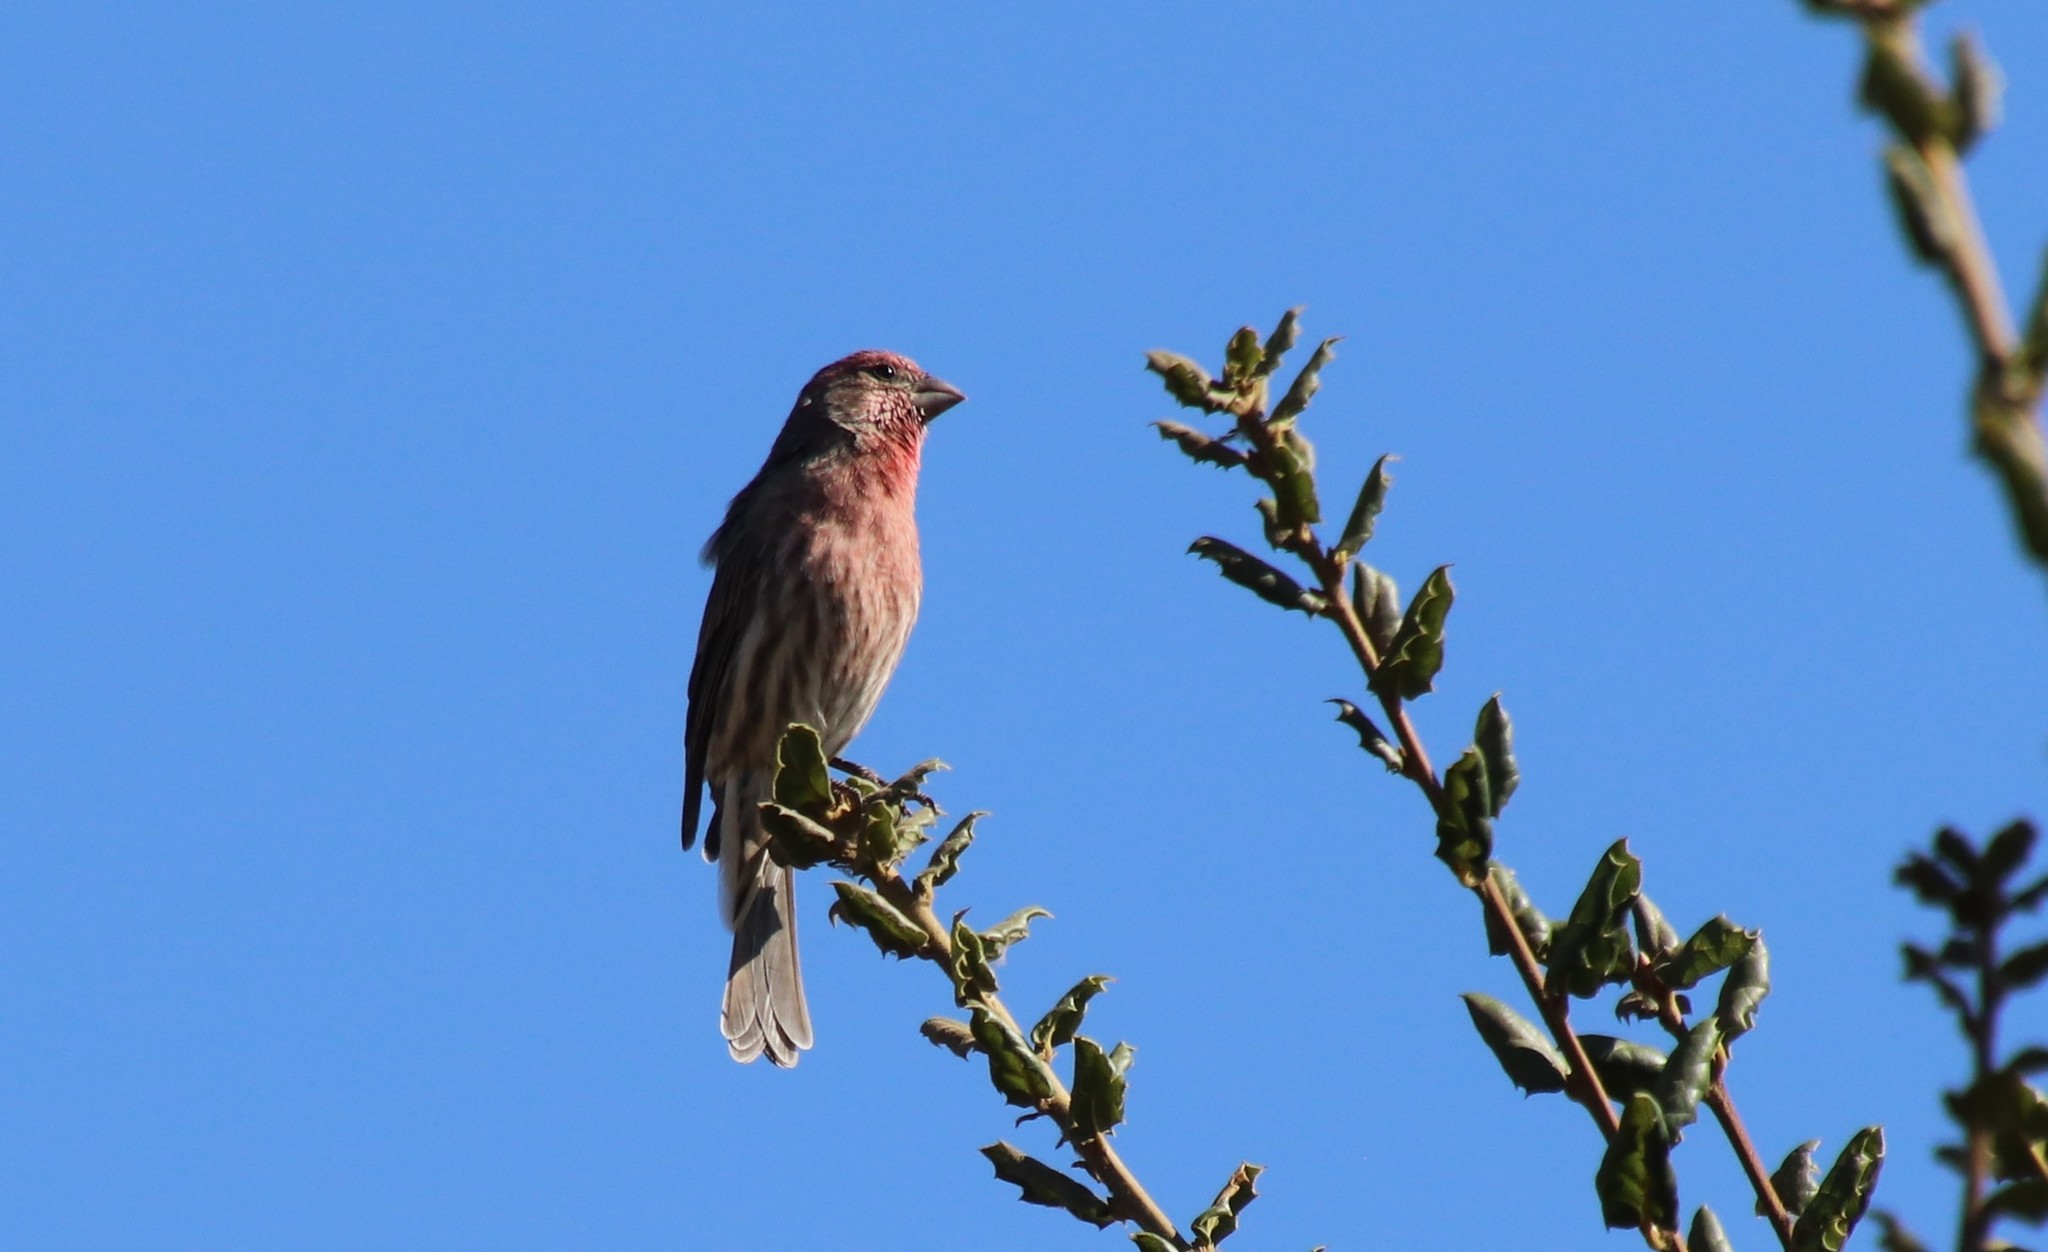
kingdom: Animalia
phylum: Chordata
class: Aves
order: Passeriformes
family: Fringillidae
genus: Haemorhous
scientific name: Haemorhous mexicanus
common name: House finch
